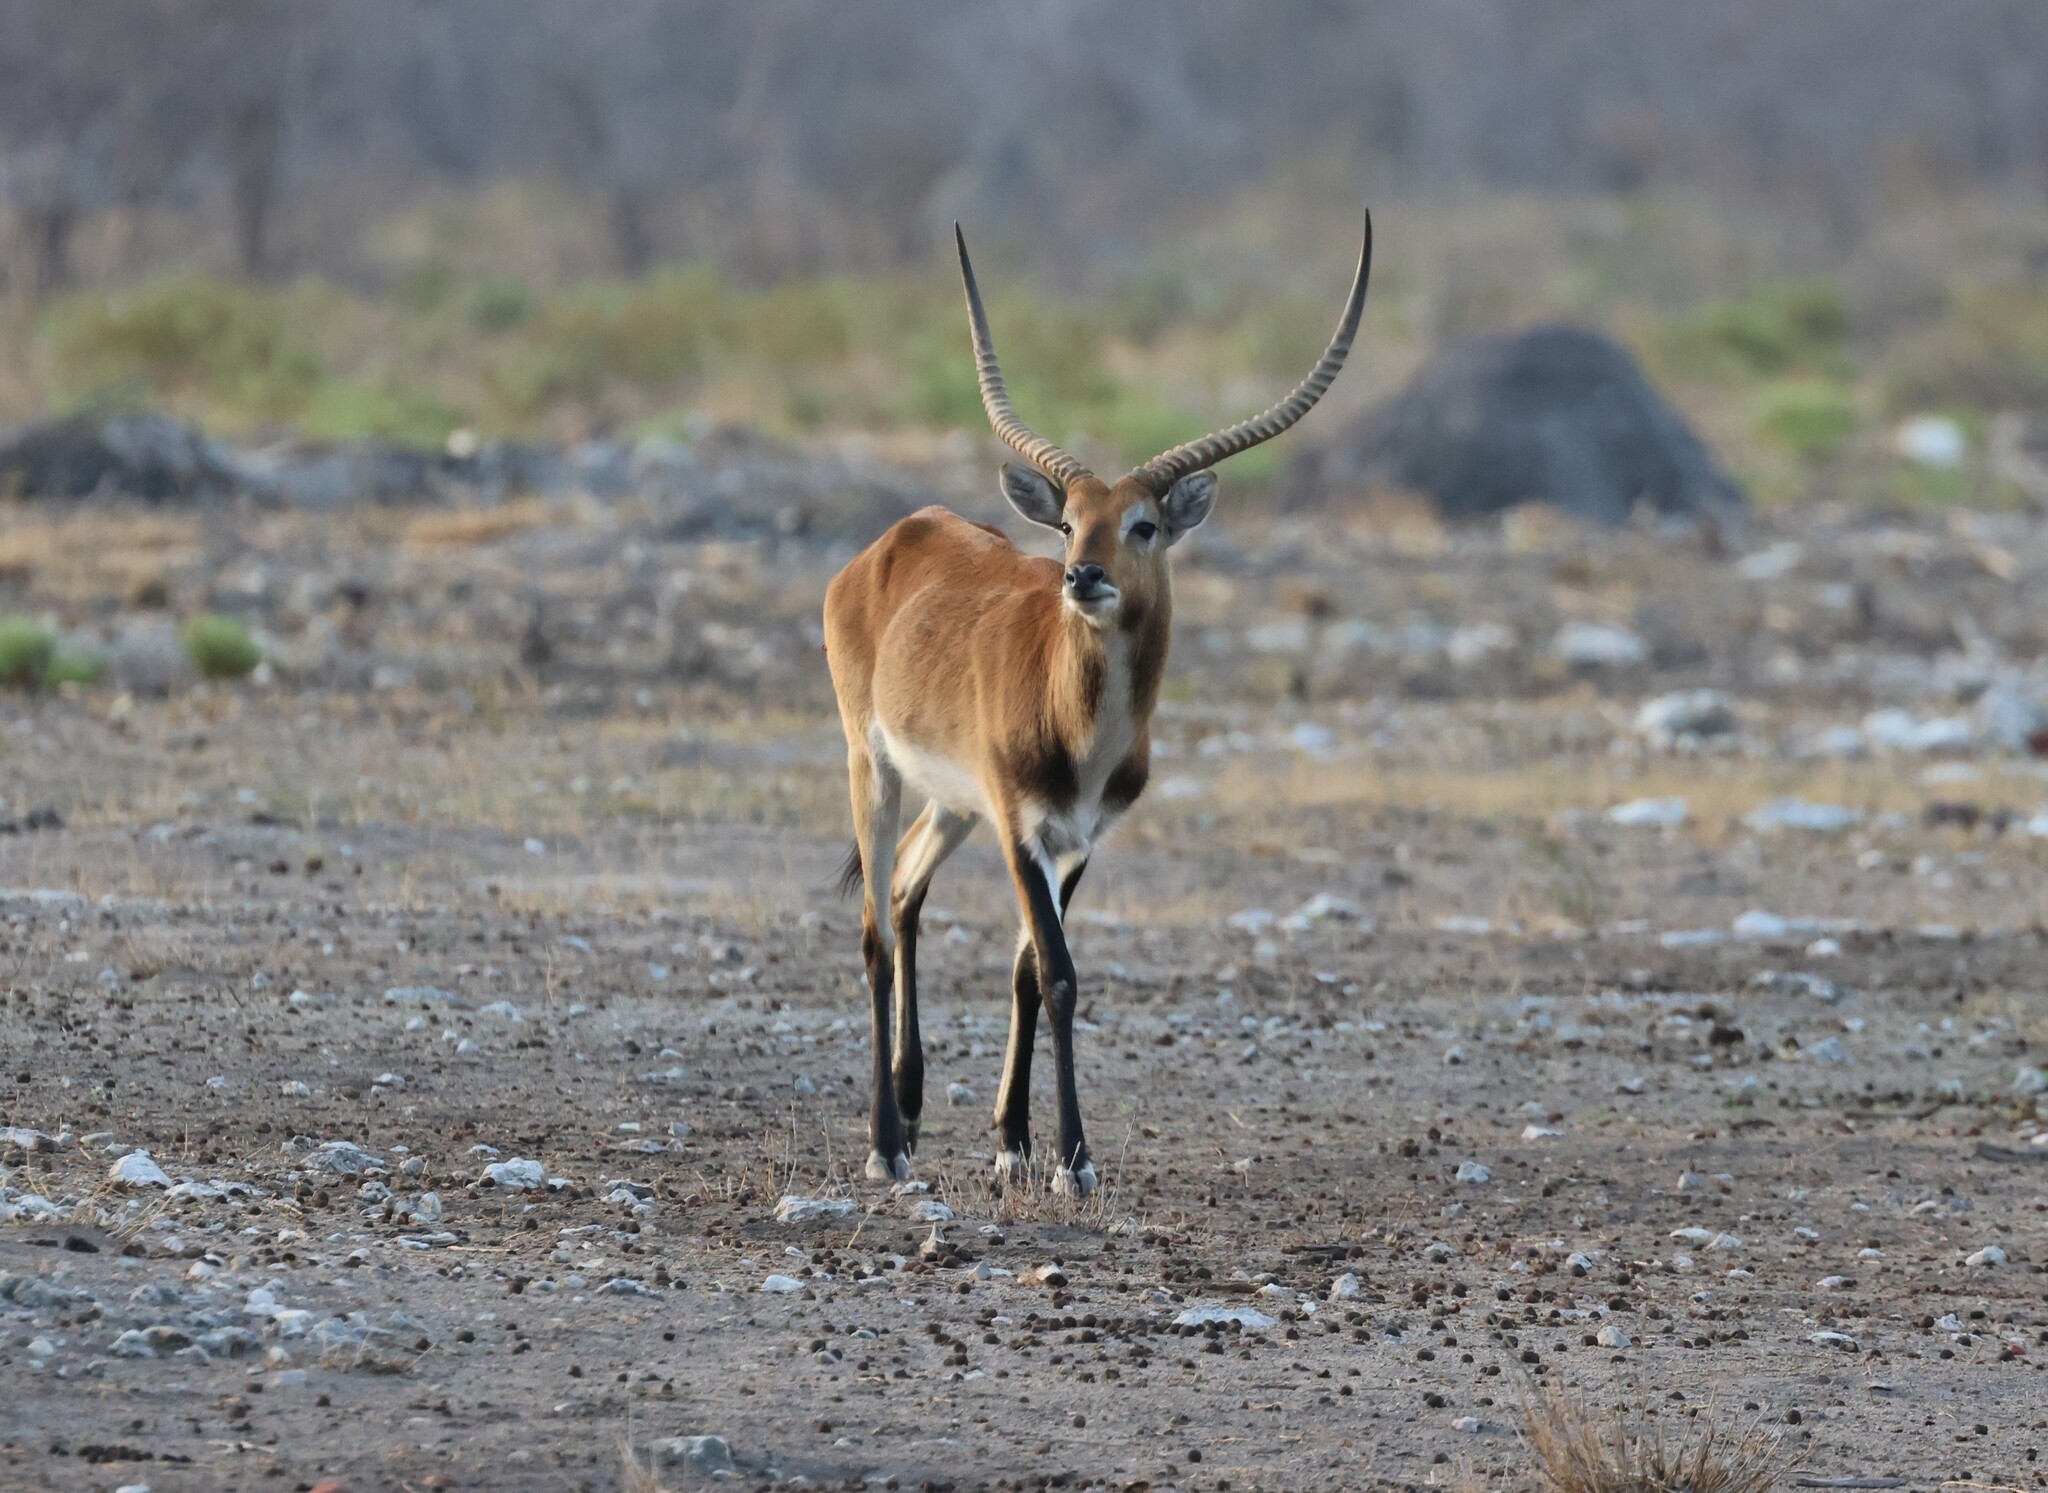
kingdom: Animalia
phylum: Chordata
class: Mammalia
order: Artiodactyla
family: Bovidae
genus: Kobus
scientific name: Kobus leche
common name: Lechwe
